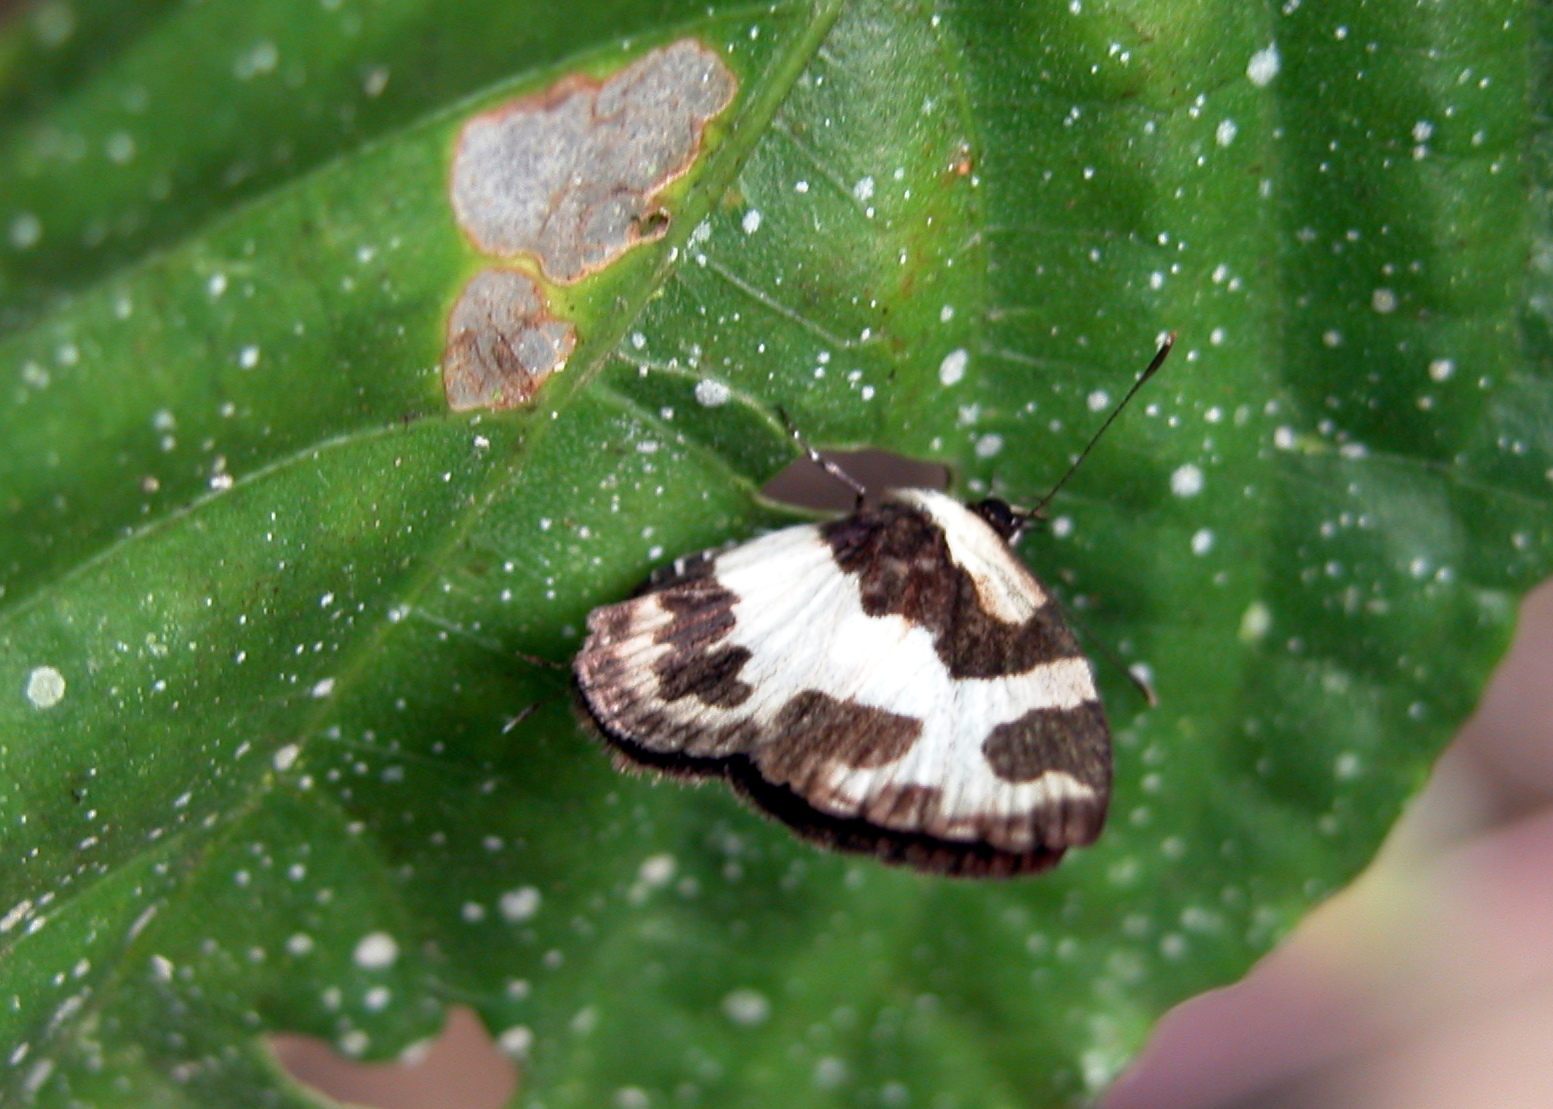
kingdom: Animalia
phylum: Arthropoda
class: Insecta
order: Lepidoptera
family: Lycaenidae
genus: Caleta
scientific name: Caleta elna
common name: Elbowed pierrot
